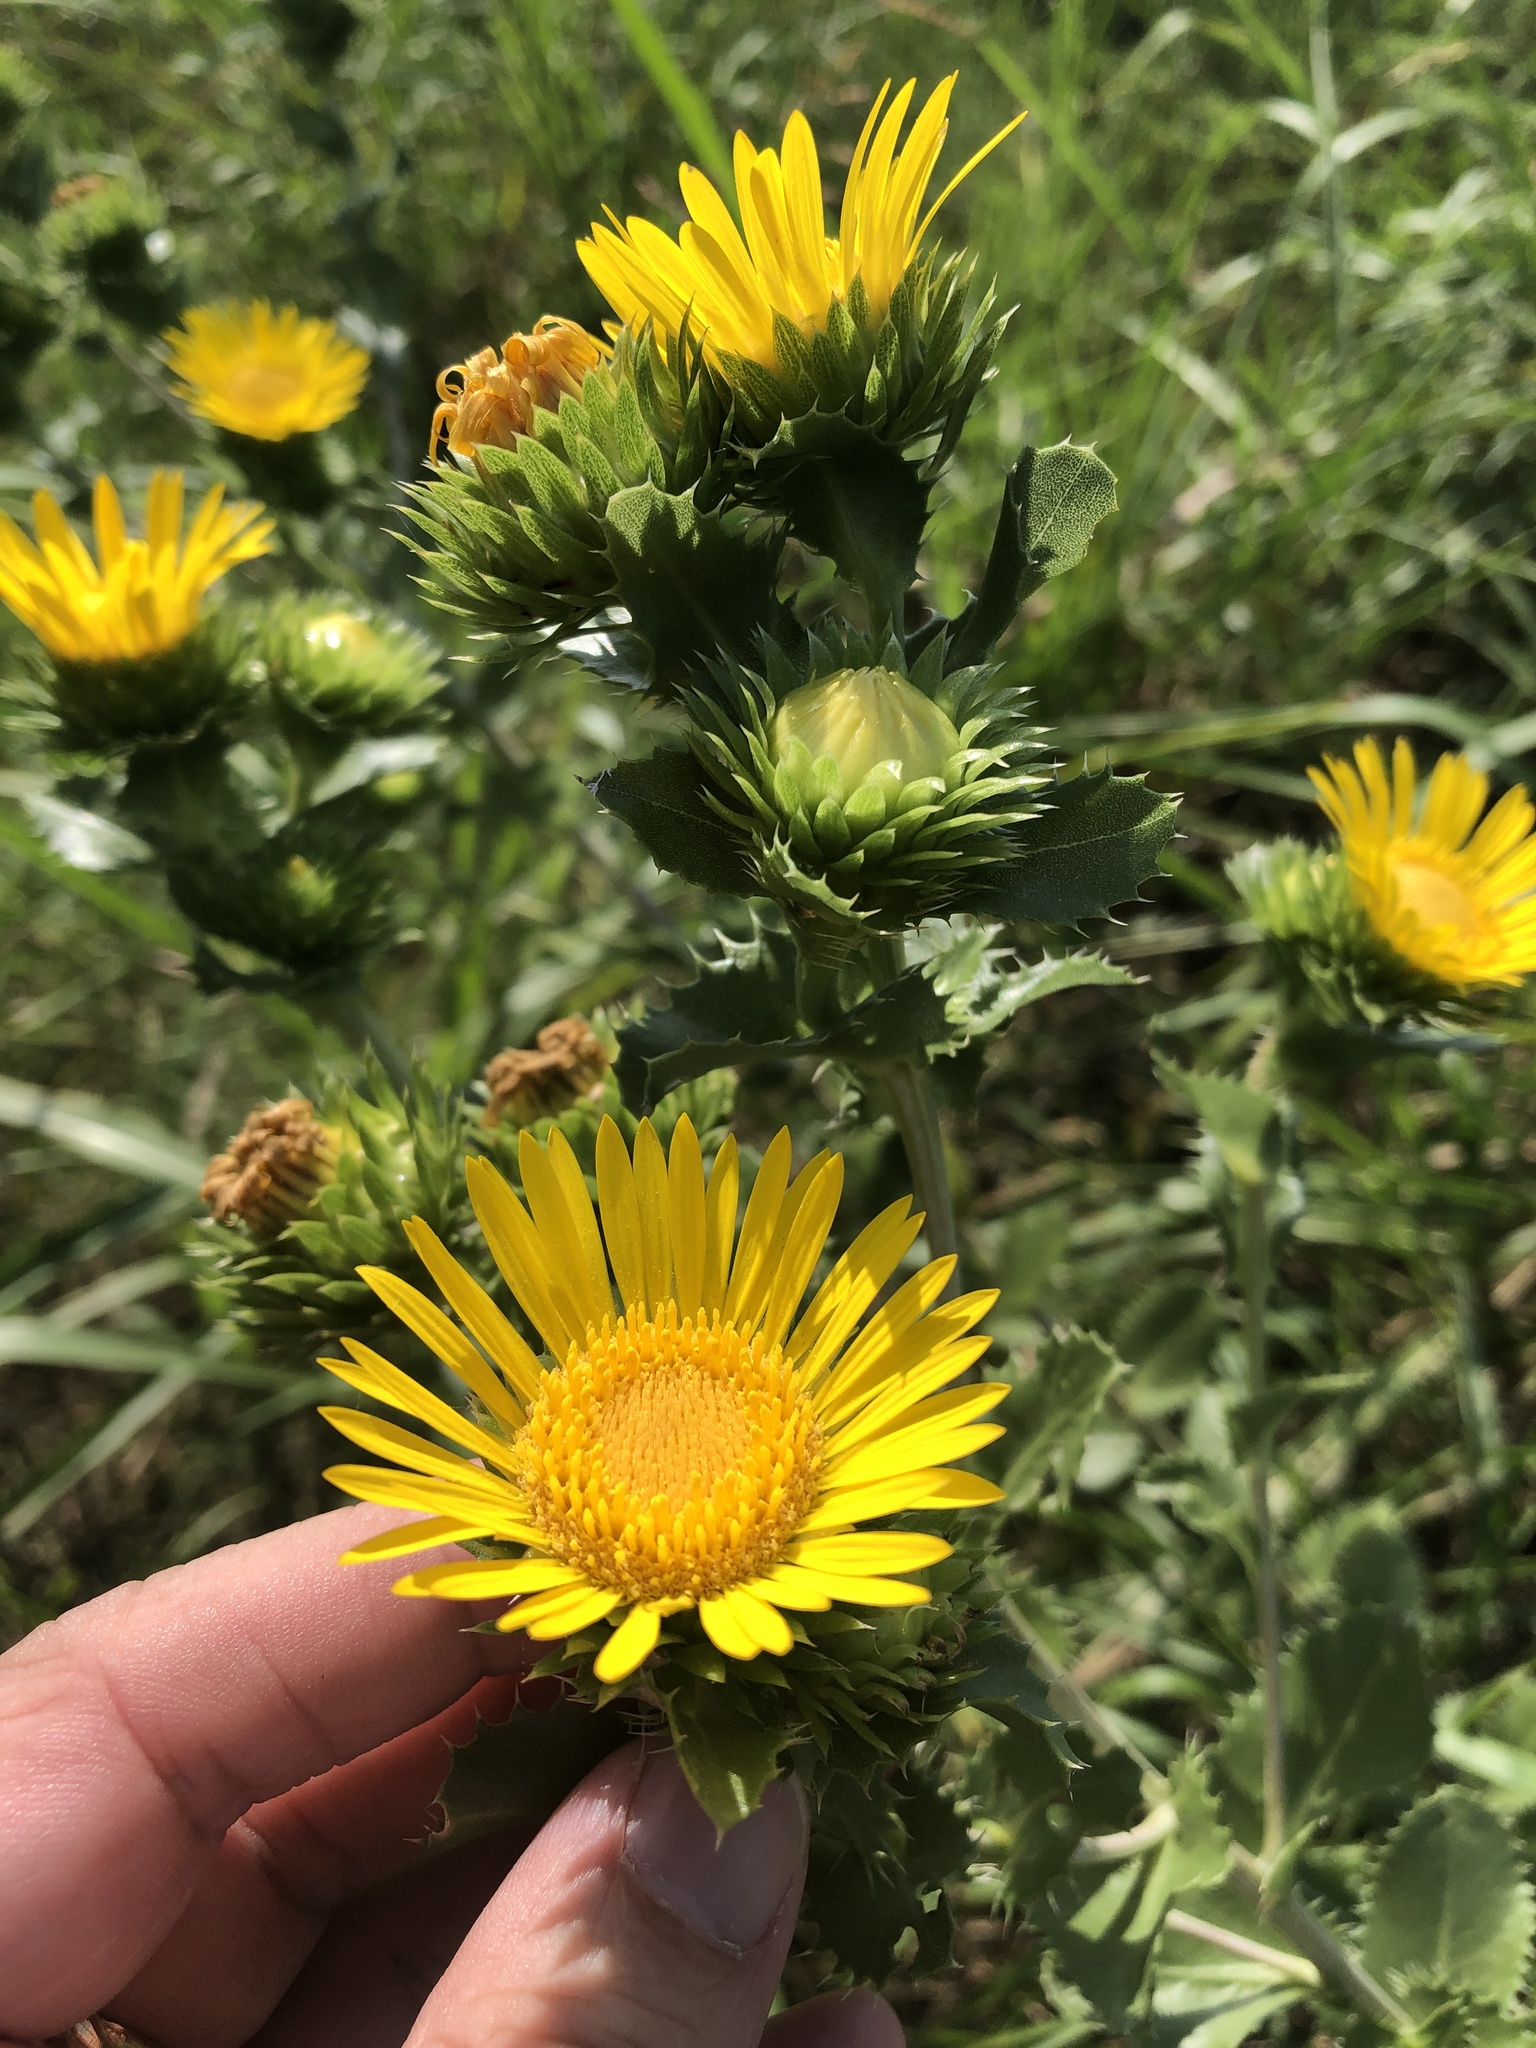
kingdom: Plantae
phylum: Tracheophyta
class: Magnoliopsida
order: Asterales
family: Asteraceae
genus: Grindelia
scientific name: Grindelia ciliata
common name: Goldenweed
